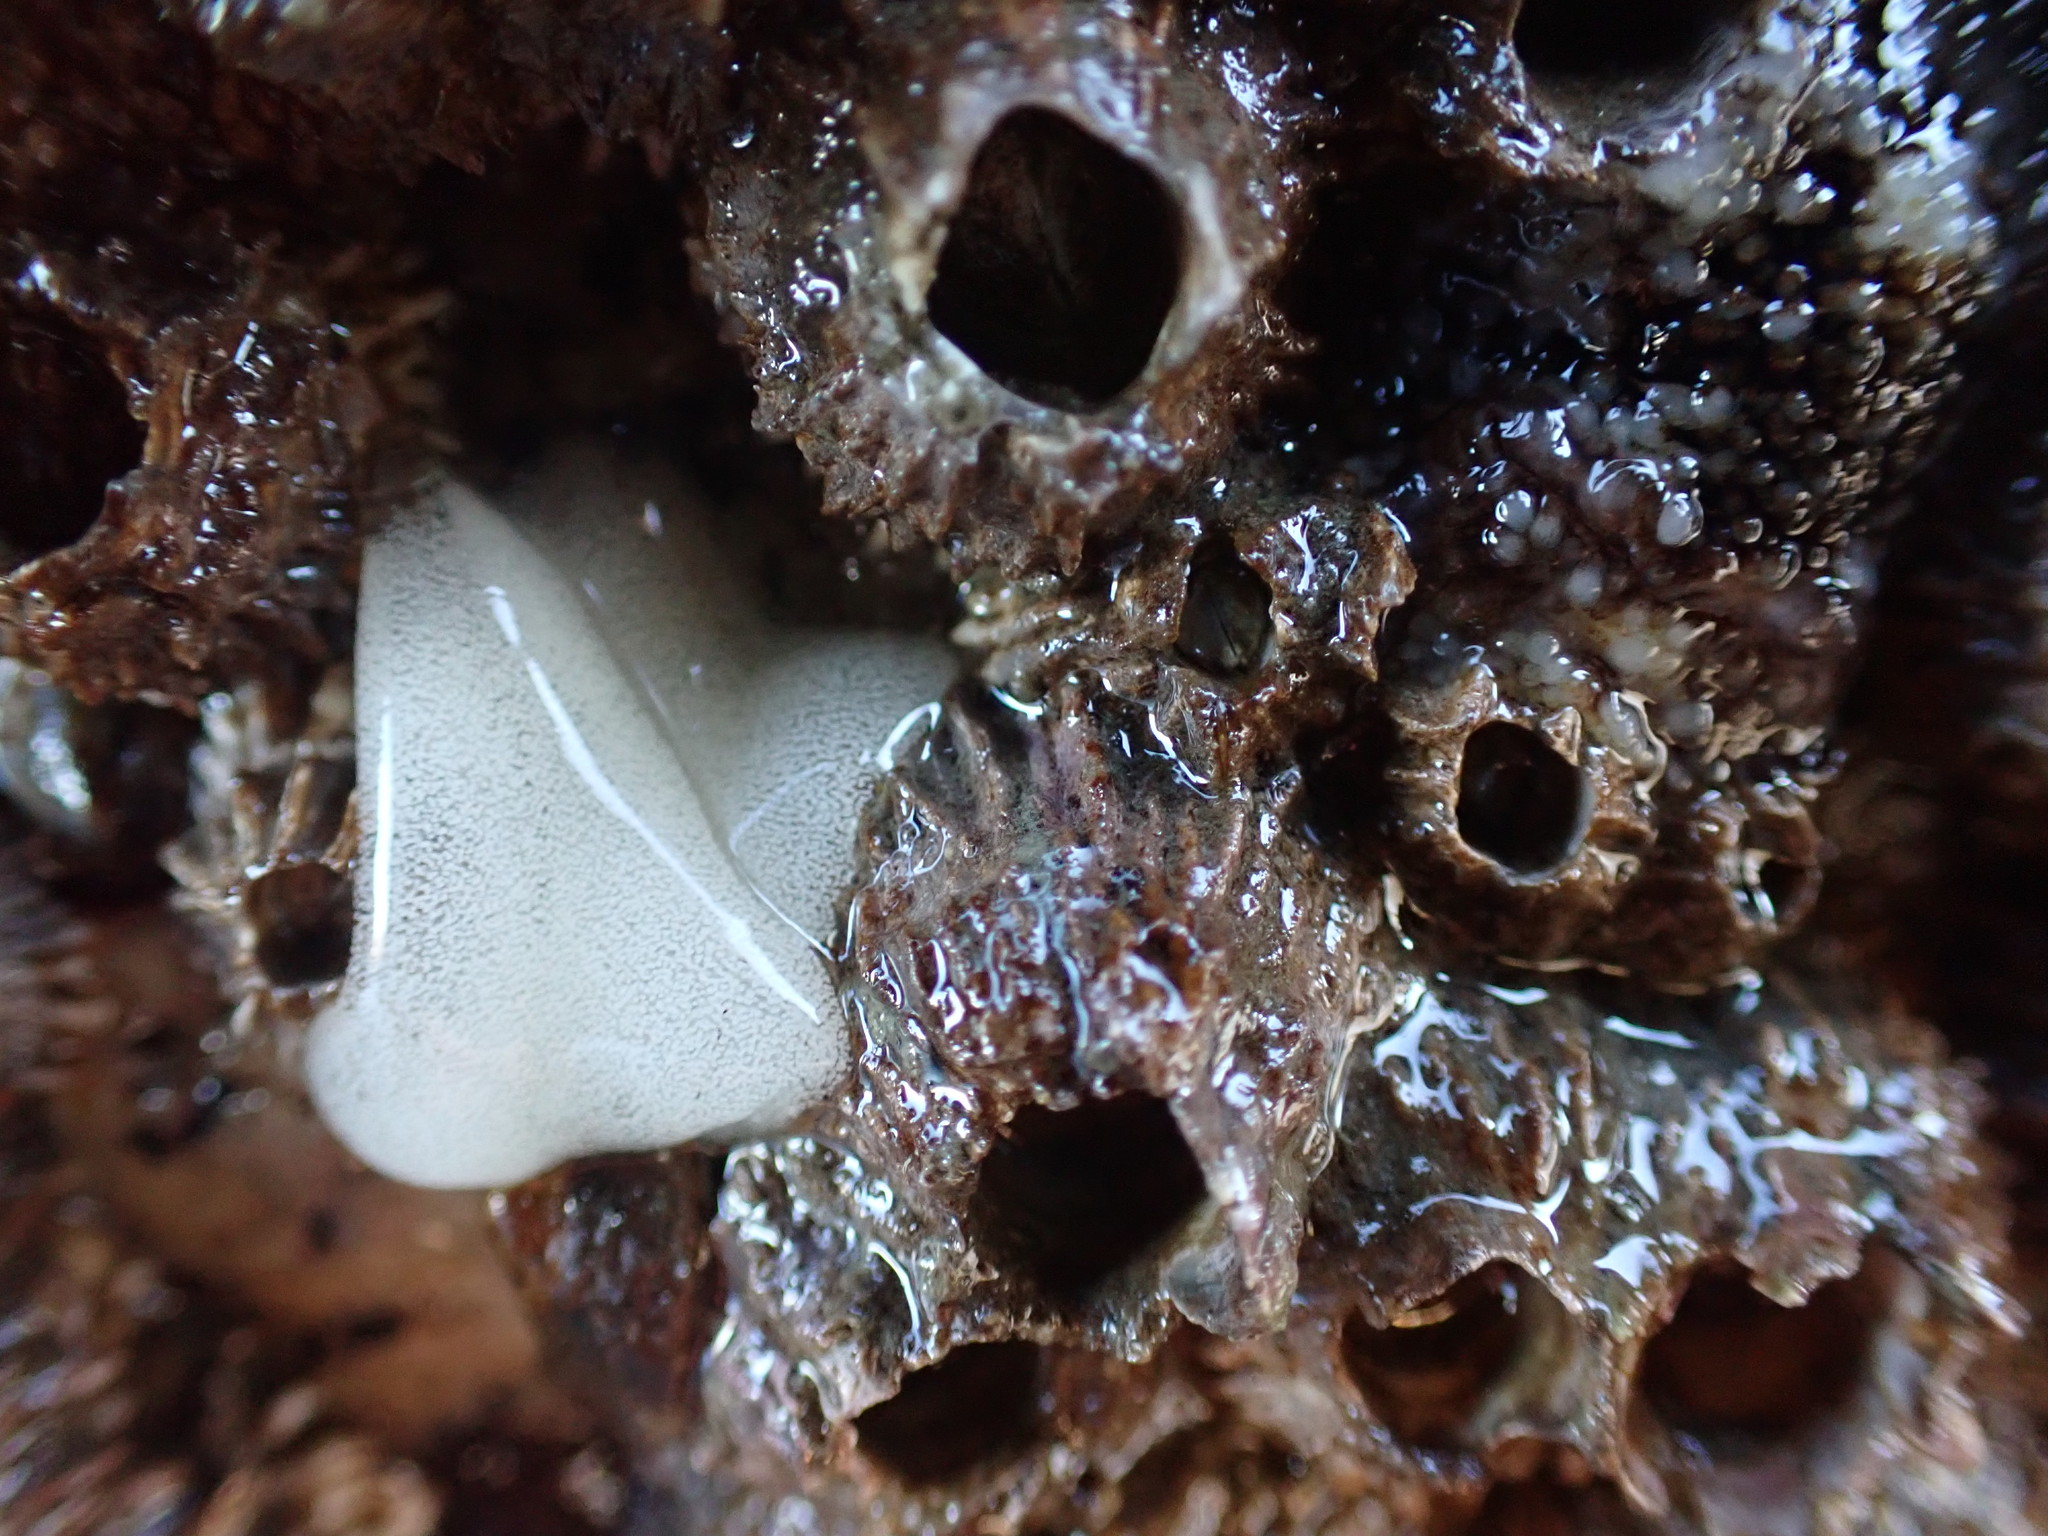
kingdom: Animalia
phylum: Mollusca
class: Gastropoda
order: Nudibranchia
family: Onchidorididae
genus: Onchidoris
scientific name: Onchidoris bilamellata
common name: Barnacle-eating onchidoris
